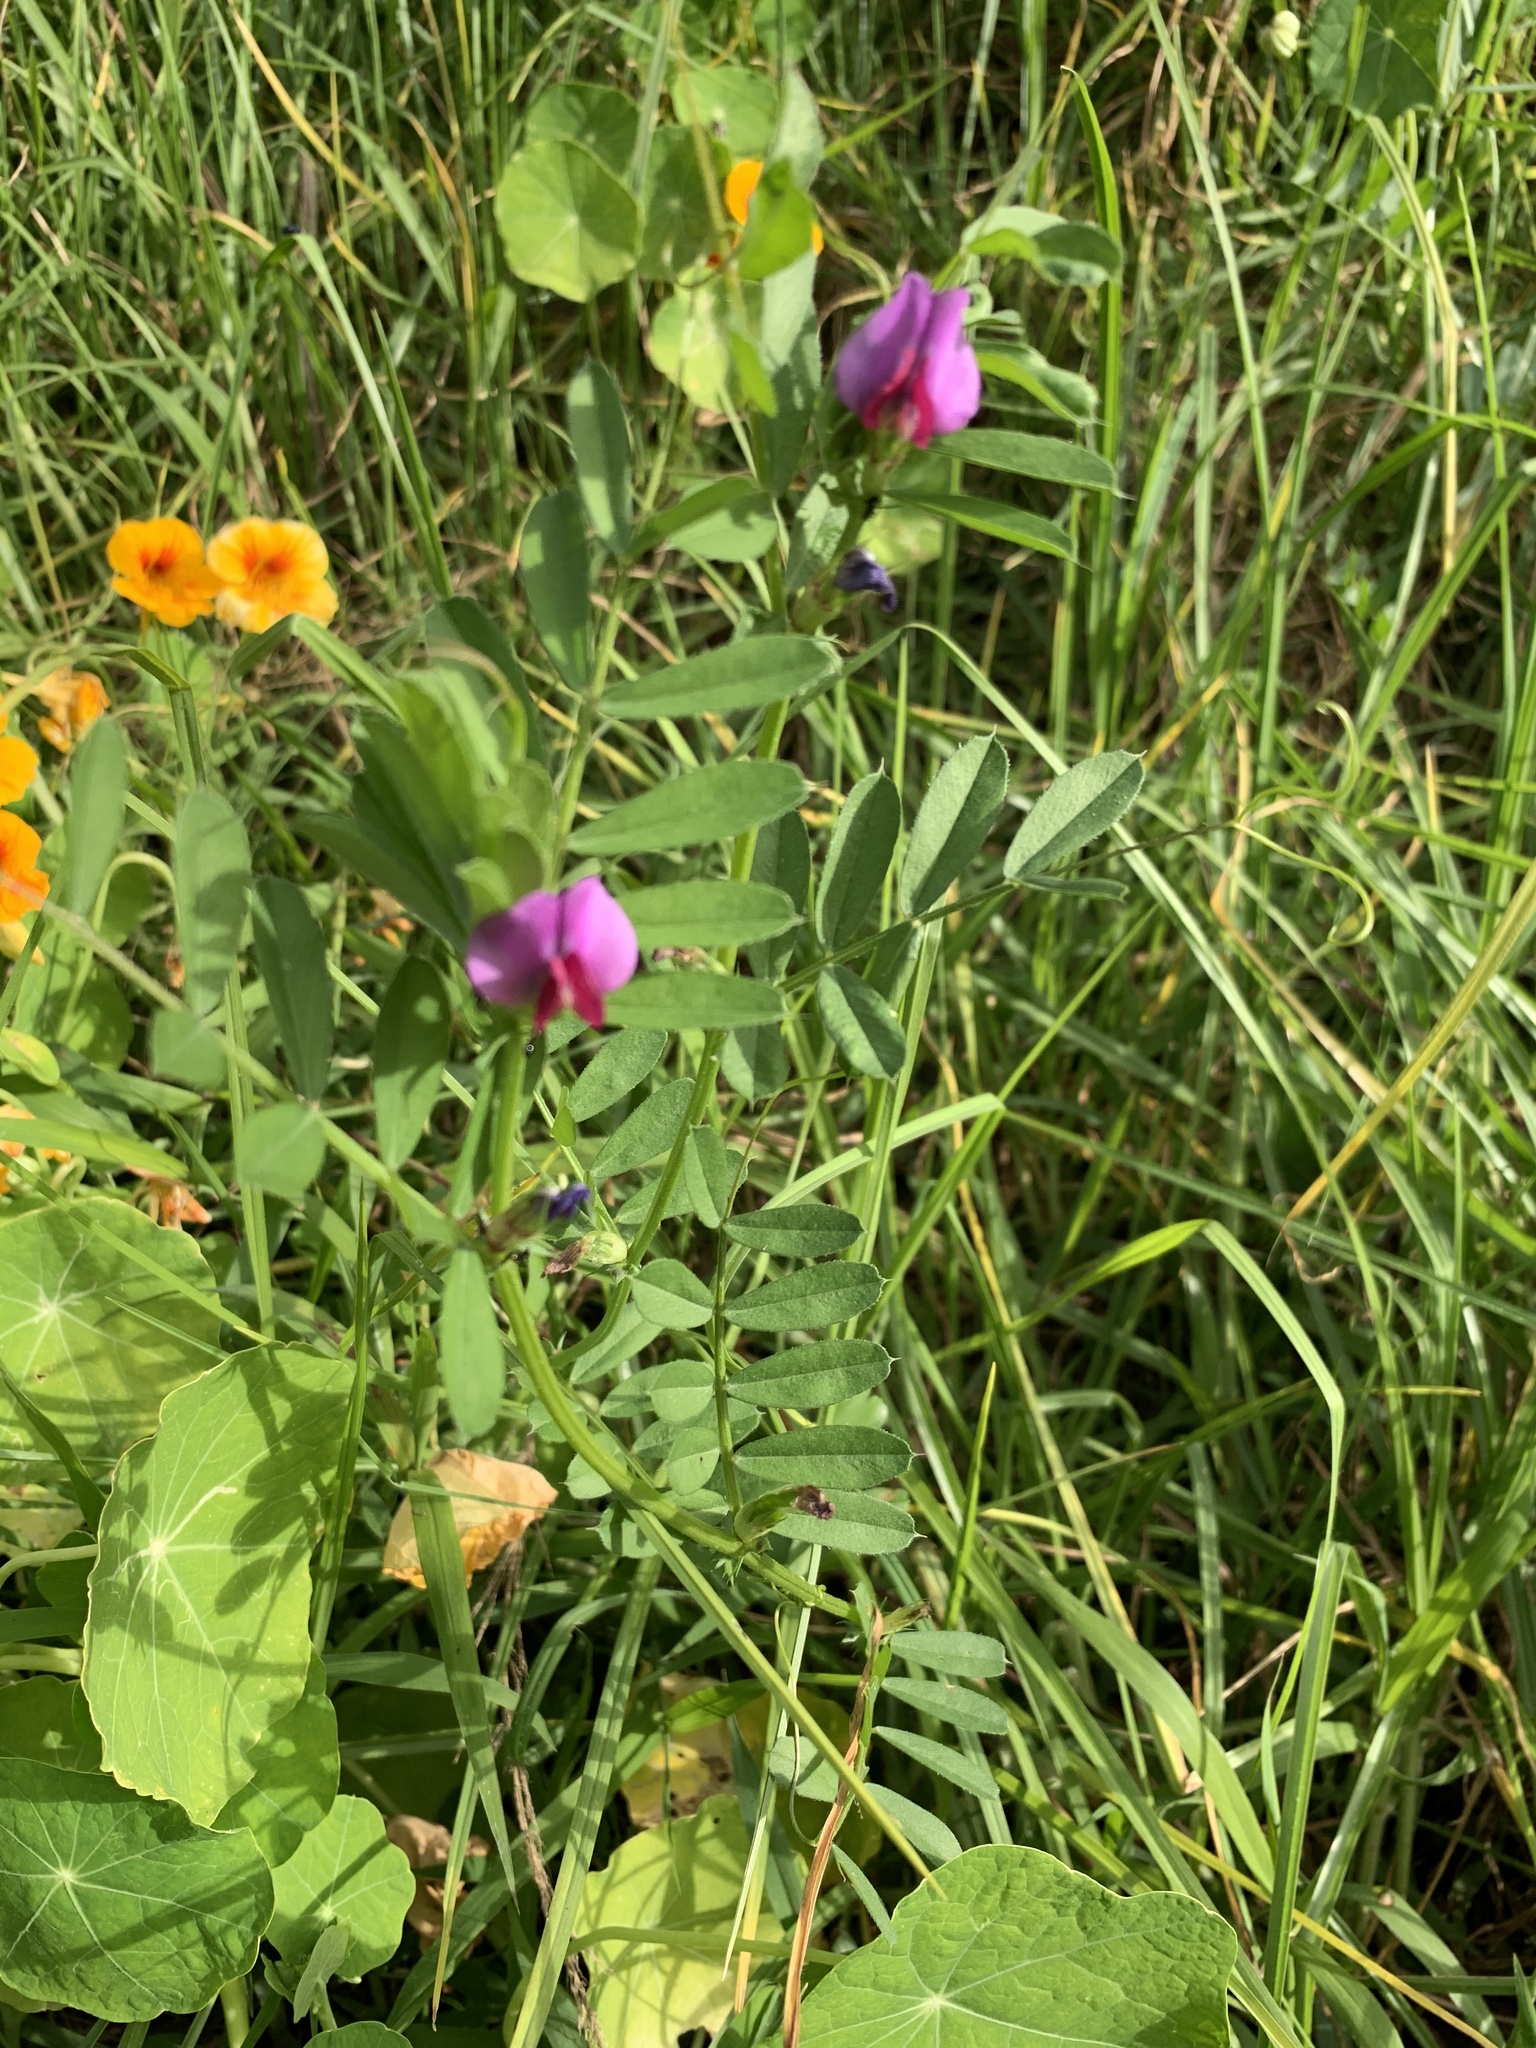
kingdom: Plantae
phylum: Tracheophyta
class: Magnoliopsida
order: Fabales
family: Fabaceae
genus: Vicia
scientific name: Vicia sativa
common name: Garden vetch
